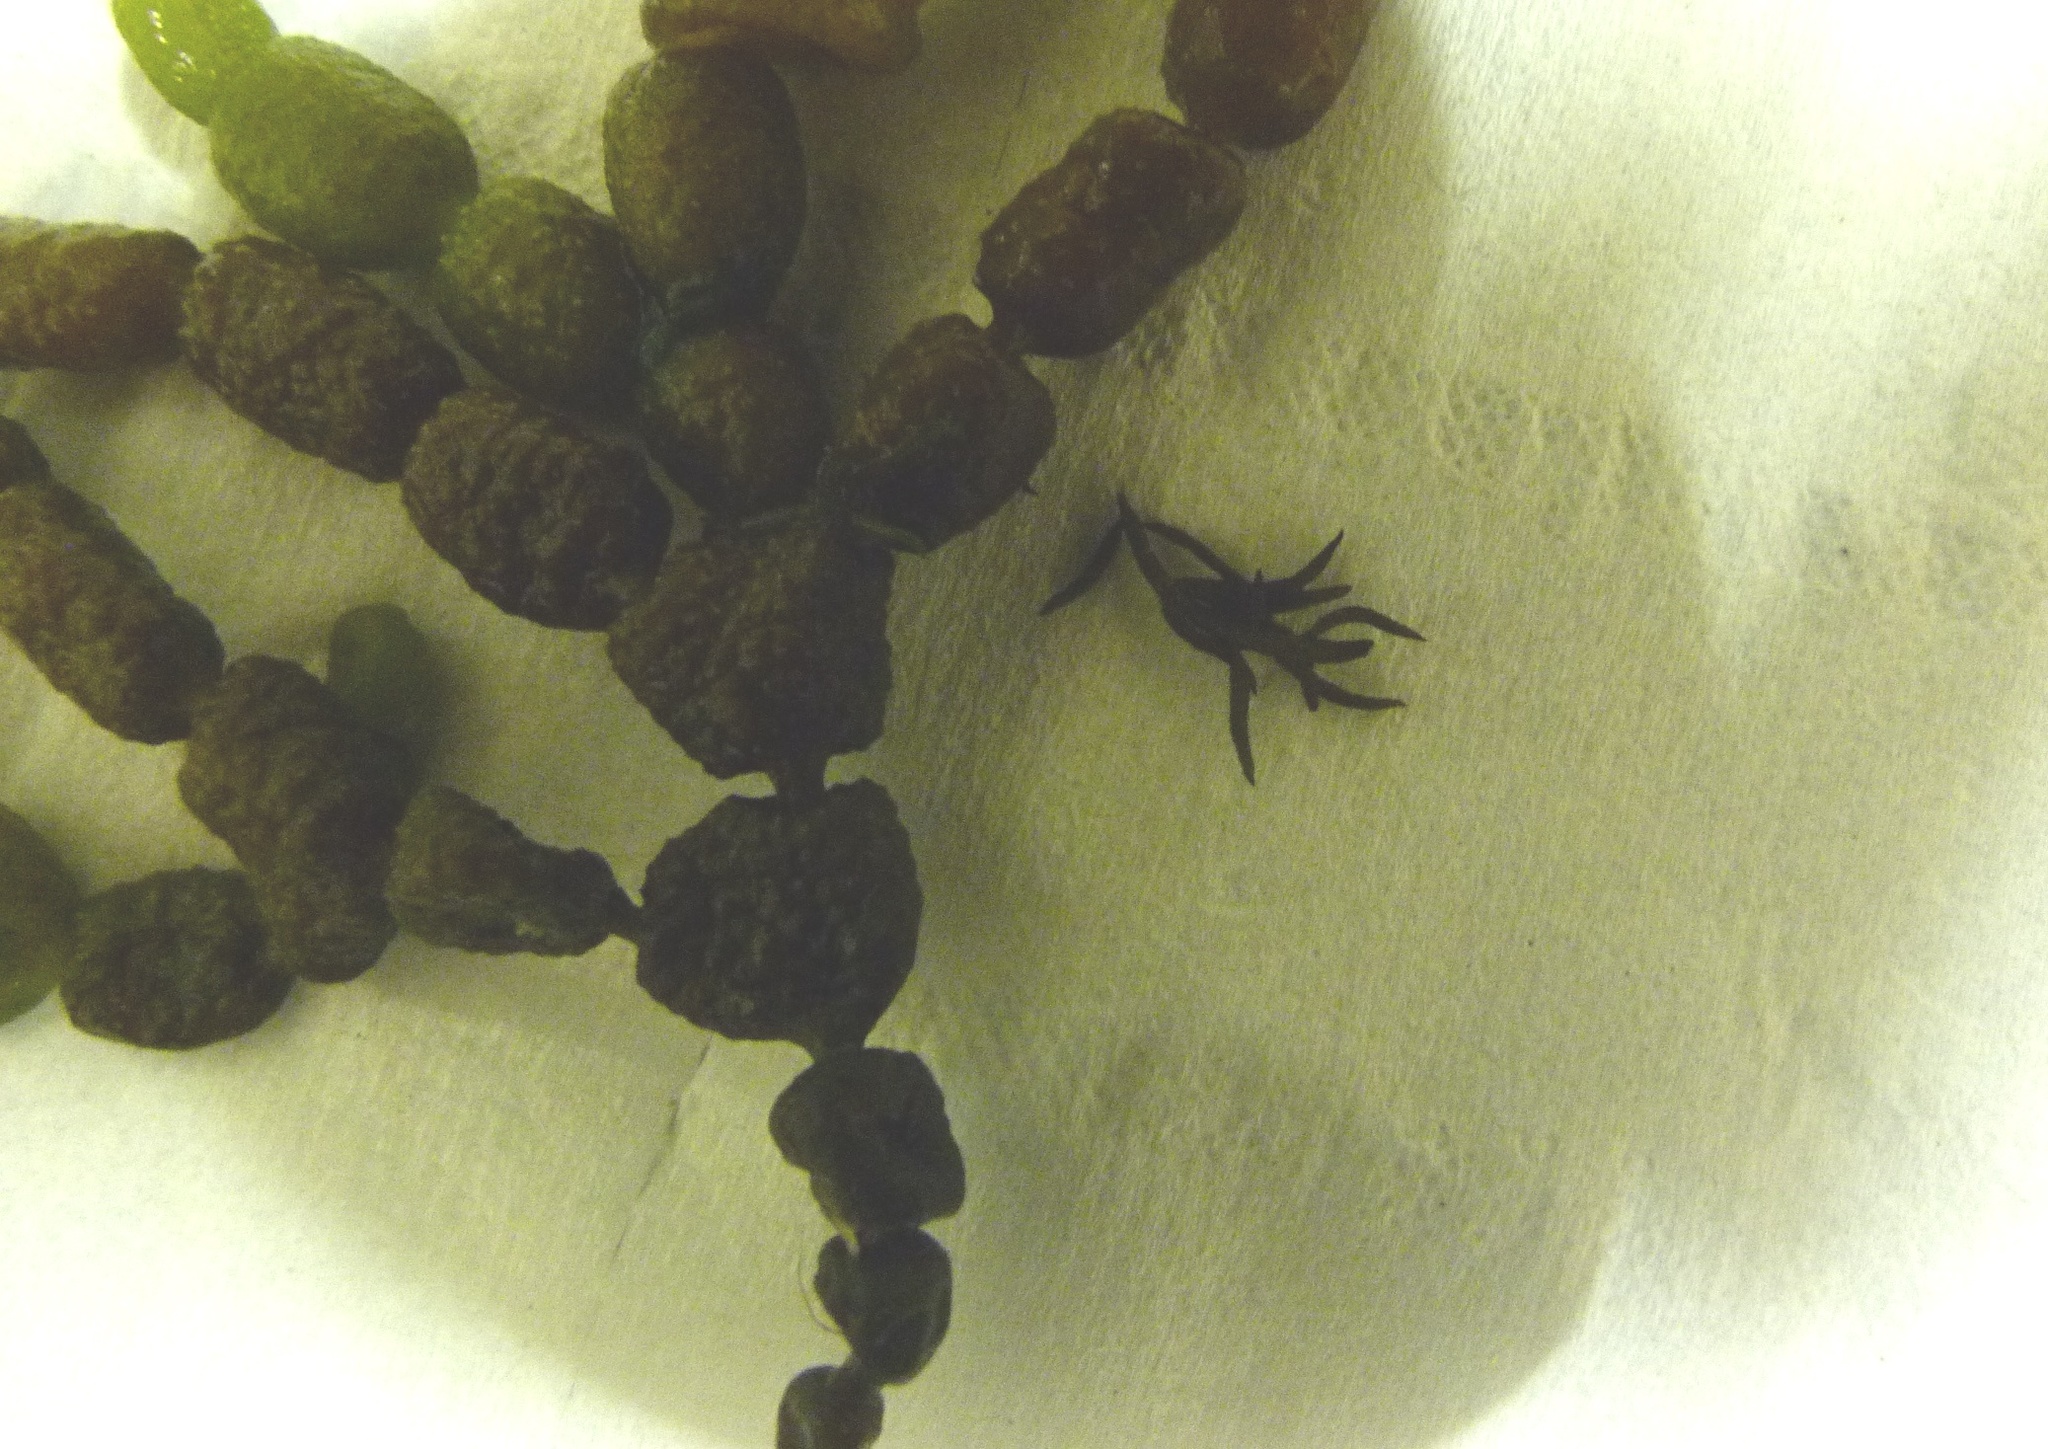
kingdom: Chromista
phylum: Ochrophyta
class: Phaeophyceae
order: Fucales
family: Notheiaceae
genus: Notheia
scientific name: Notheia anomala
